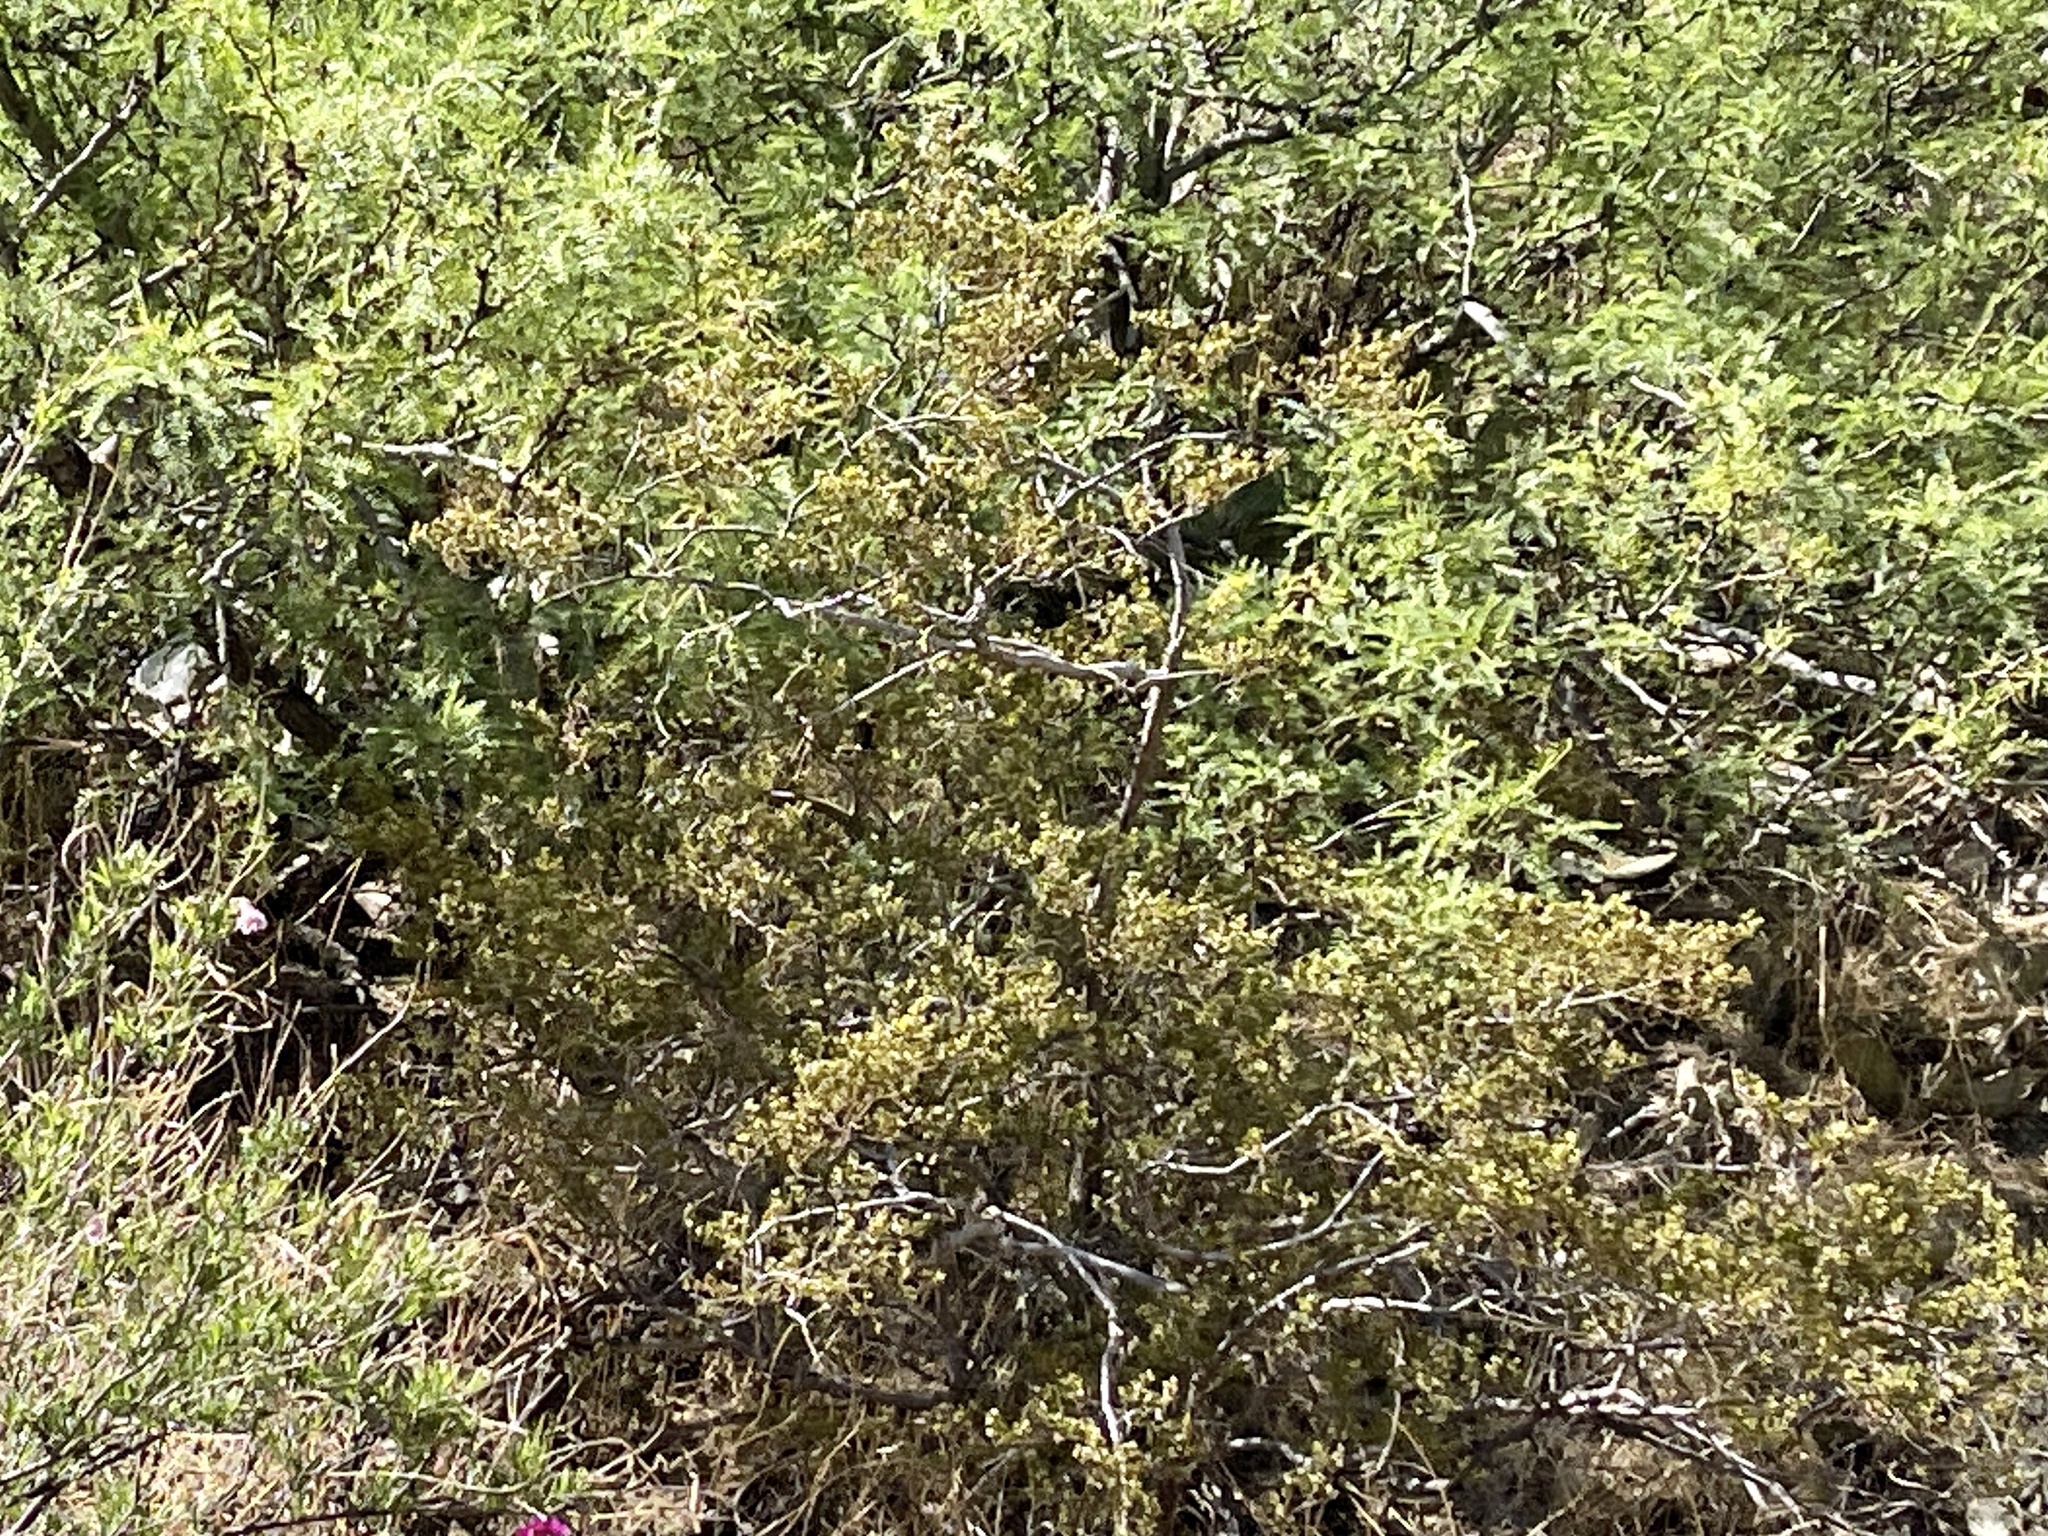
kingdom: Plantae
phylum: Tracheophyta
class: Magnoliopsida
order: Zygophyllales
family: Zygophyllaceae
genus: Larrea
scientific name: Larrea tridentata
